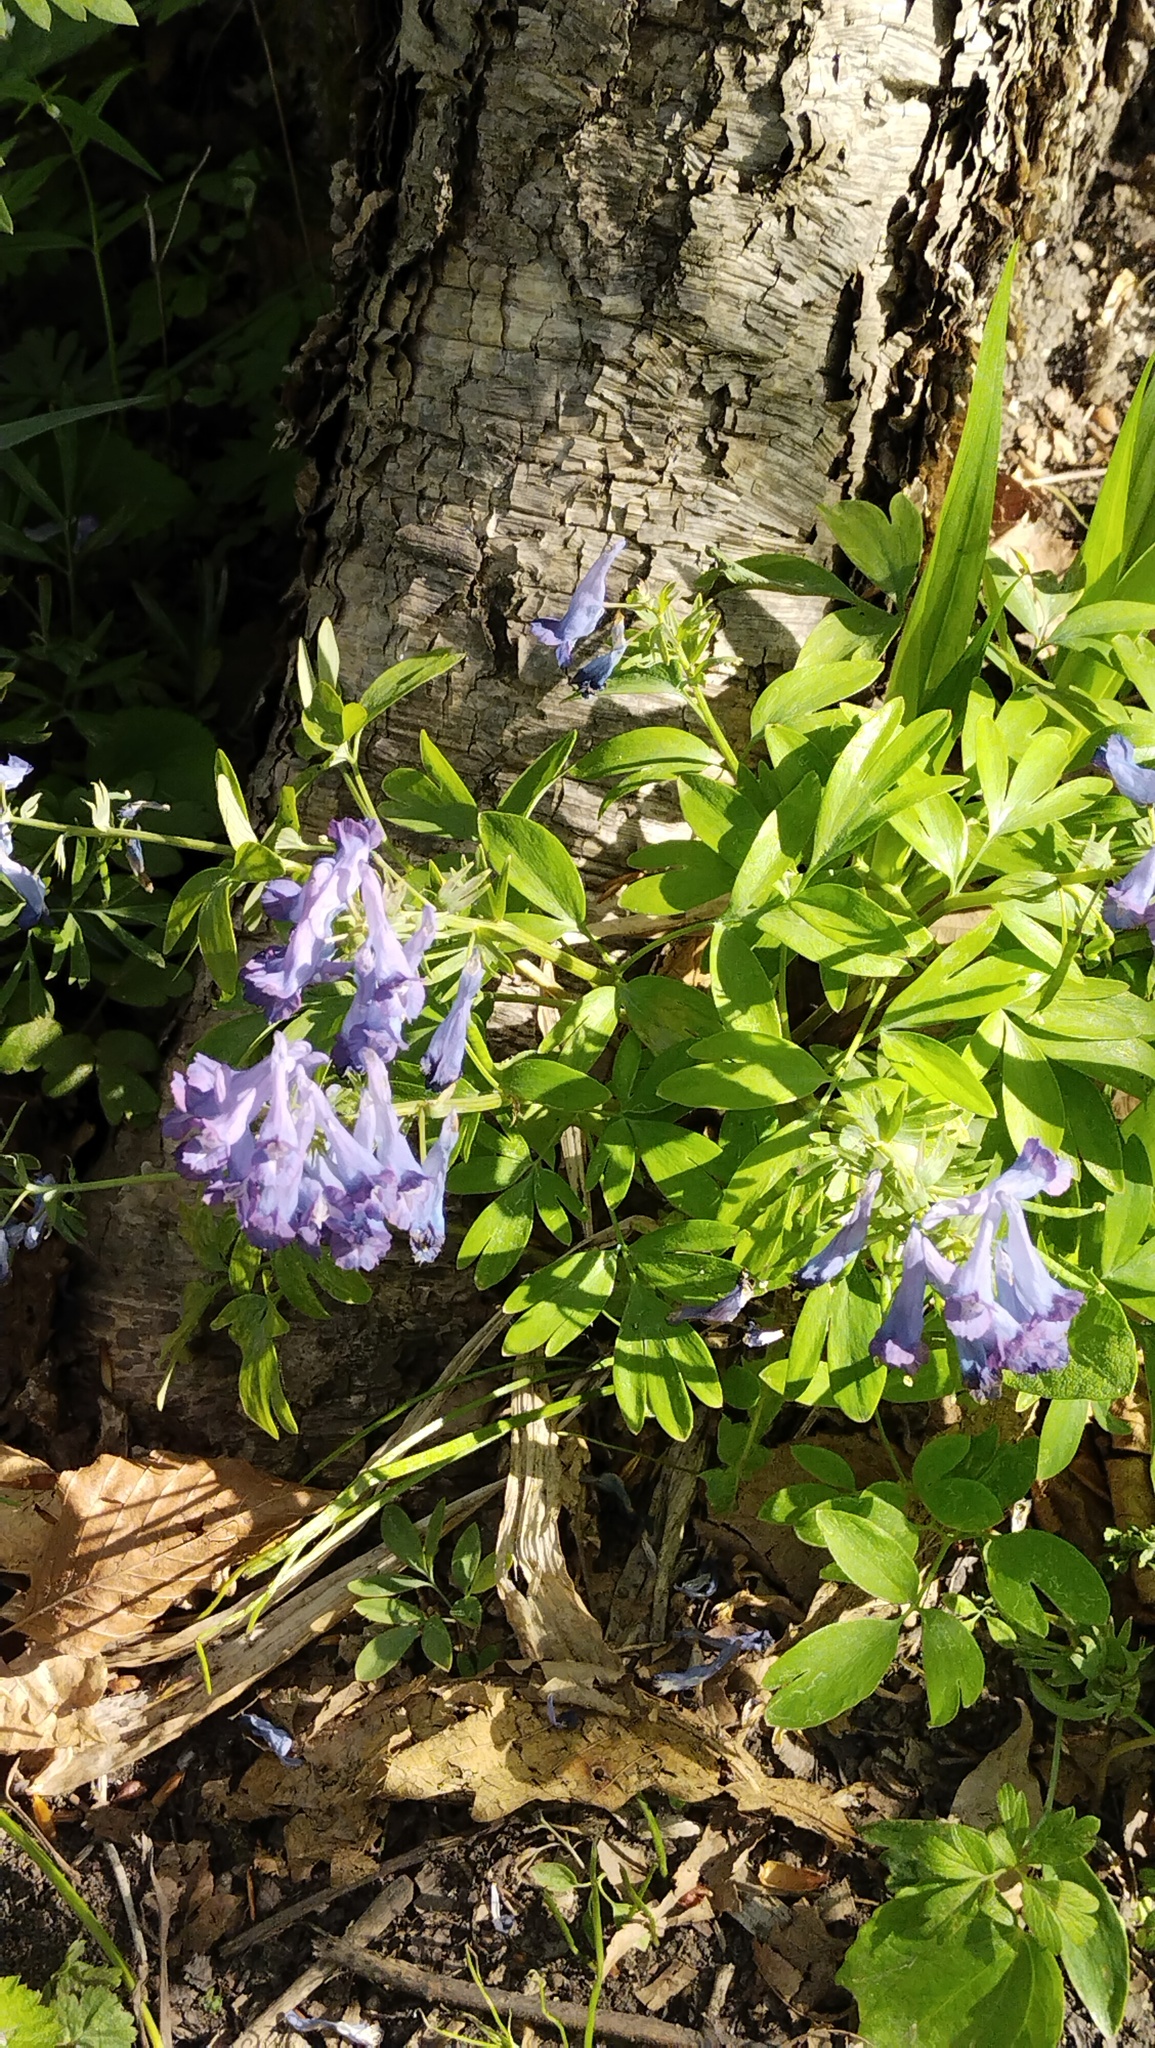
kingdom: Plantae
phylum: Tracheophyta
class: Magnoliopsida
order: Ranunculales
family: Papaveraceae
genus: Corydalis
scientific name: Corydalis turtschaninovii
